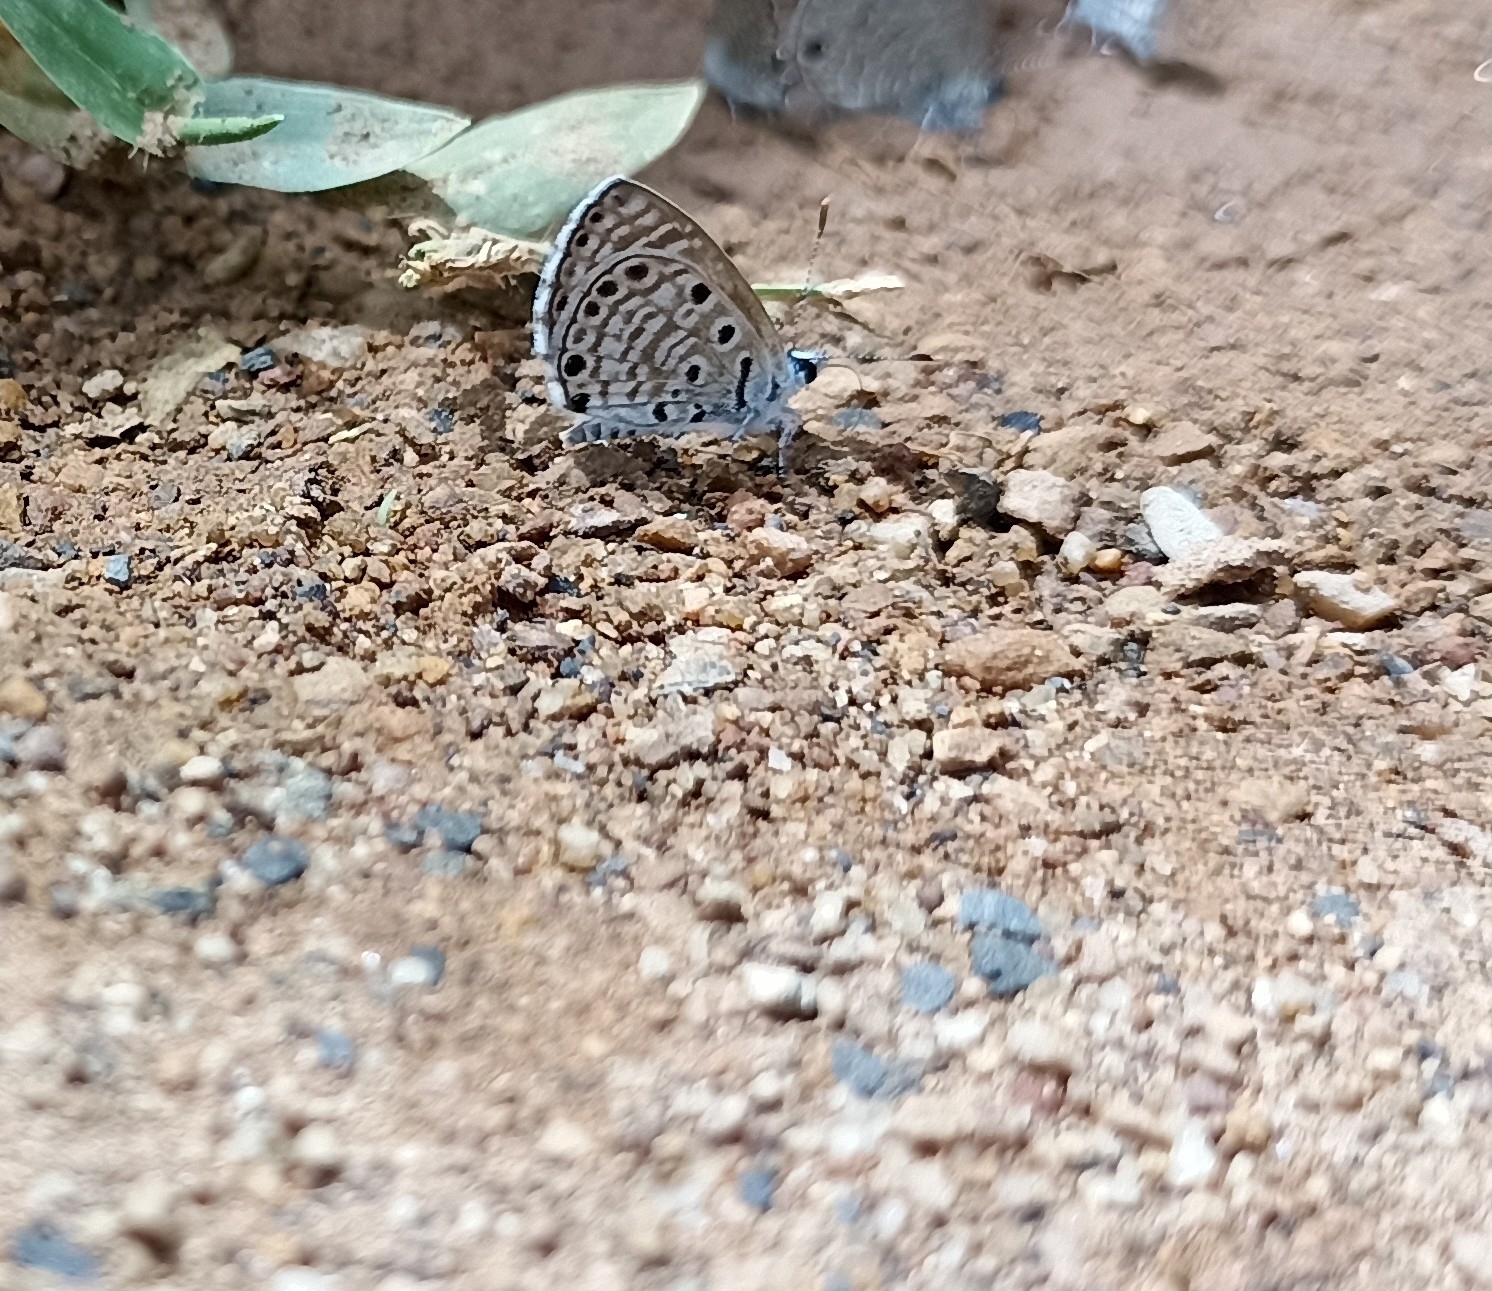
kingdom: Animalia
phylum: Arthropoda
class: Insecta
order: Lepidoptera
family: Lycaenidae
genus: Azanus
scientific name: Azanus jesous
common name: African babul blue
